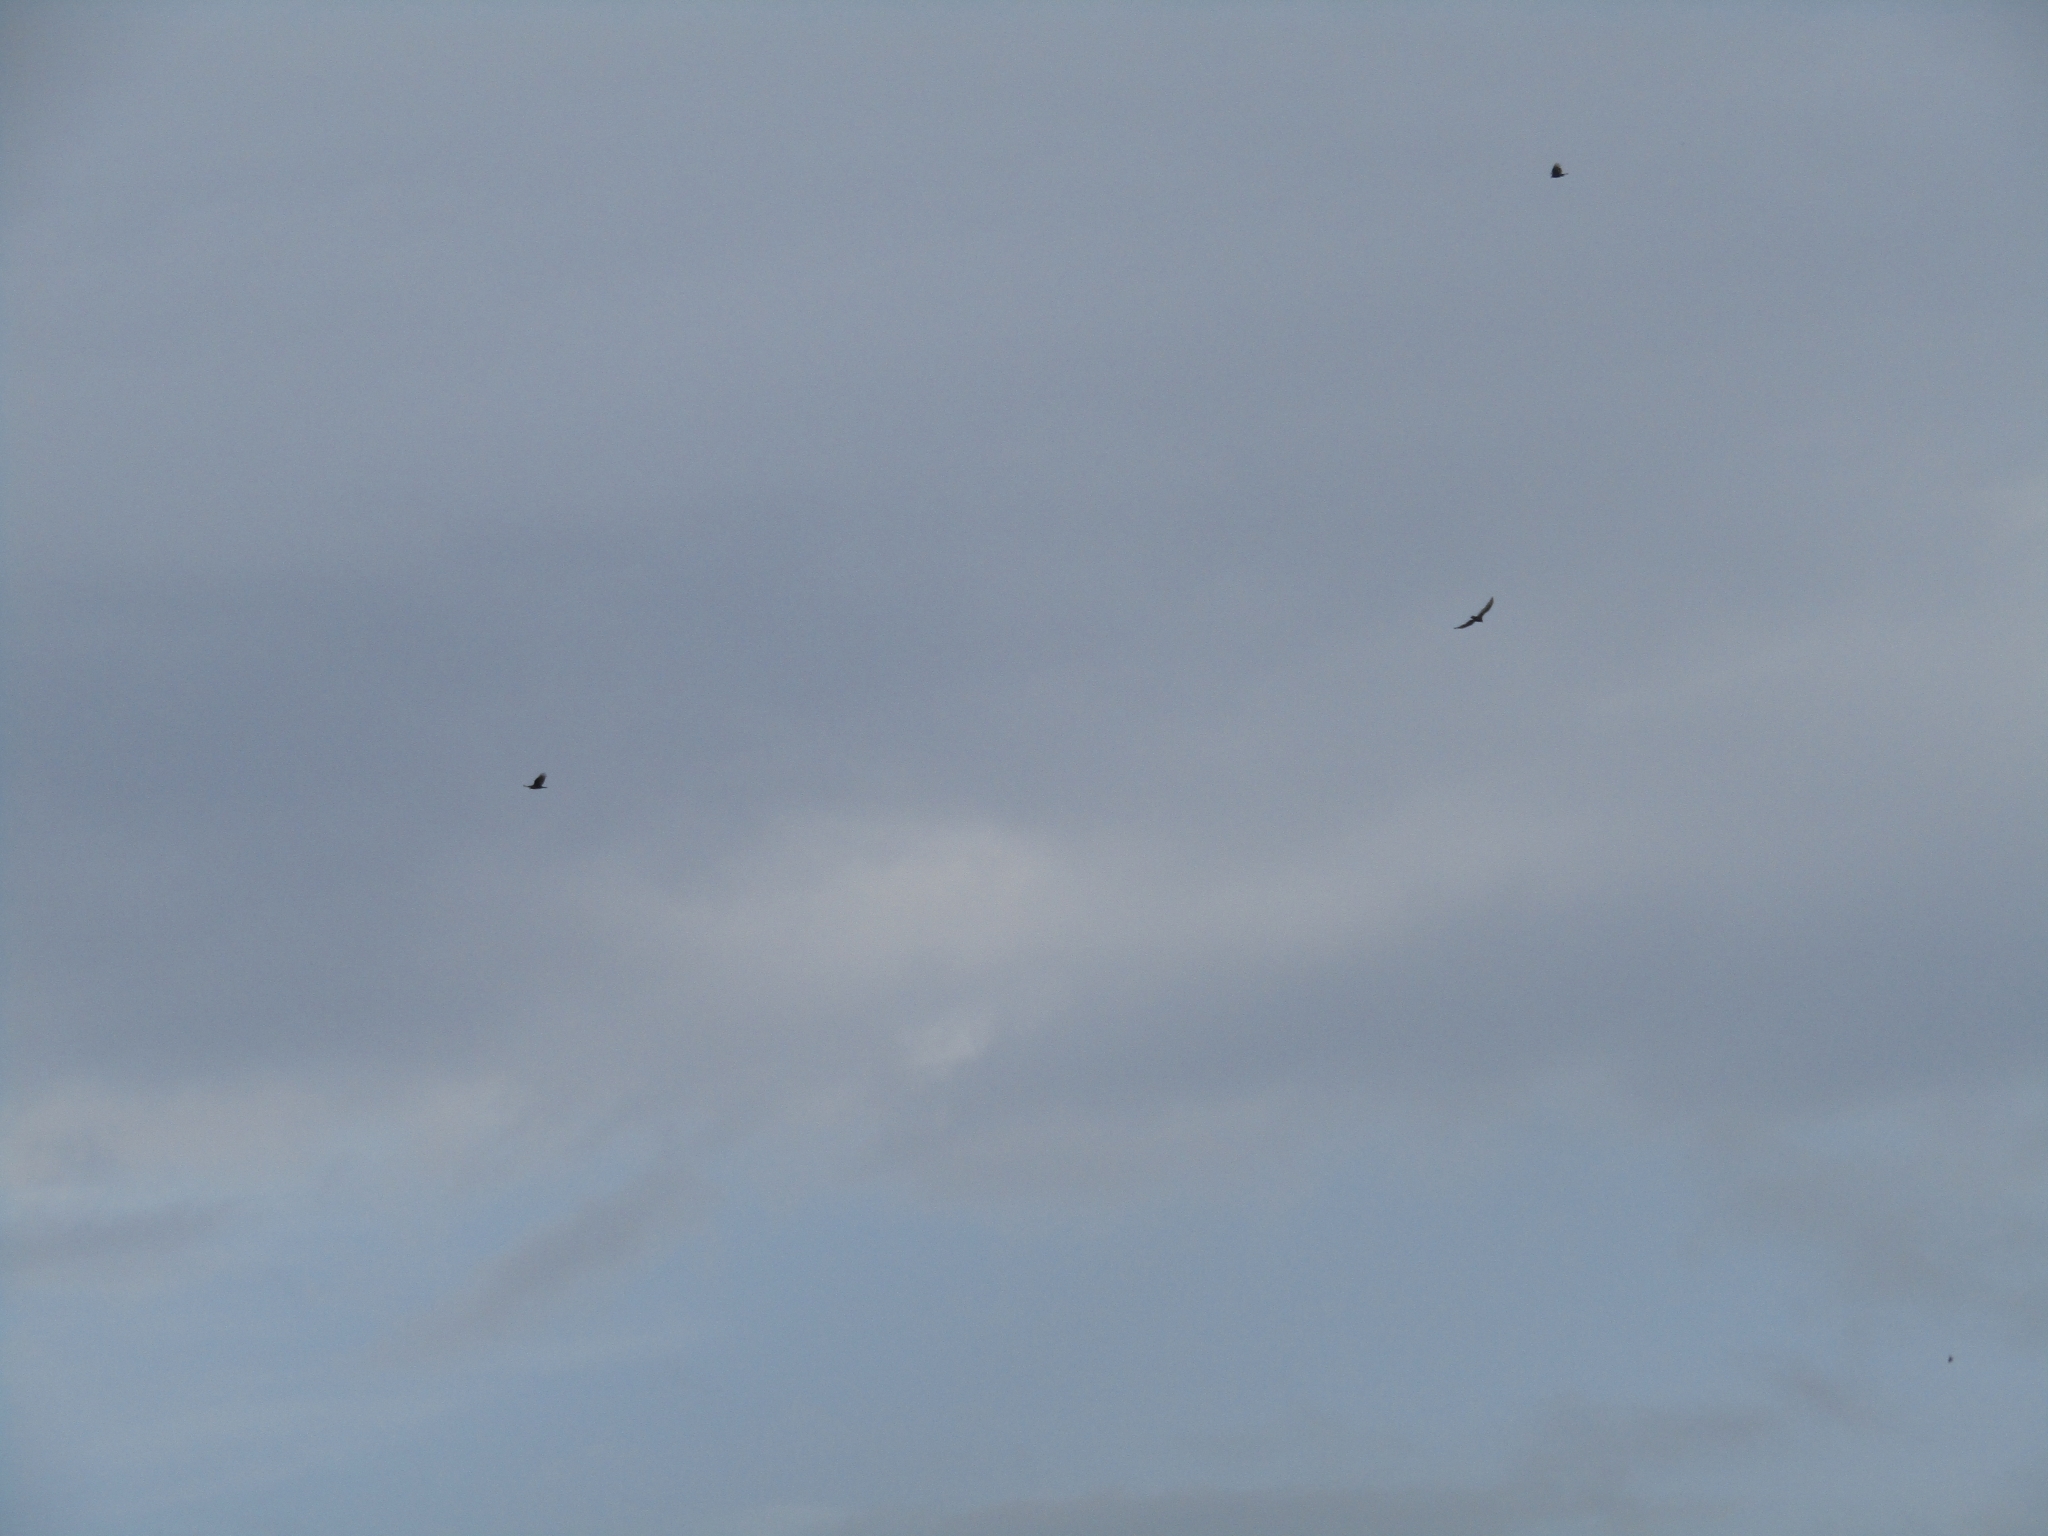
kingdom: Animalia
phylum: Chordata
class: Aves
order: Accipitriformes
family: Cathartidae
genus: Cathartes
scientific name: Cathartes aura
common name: Turkey vulture
